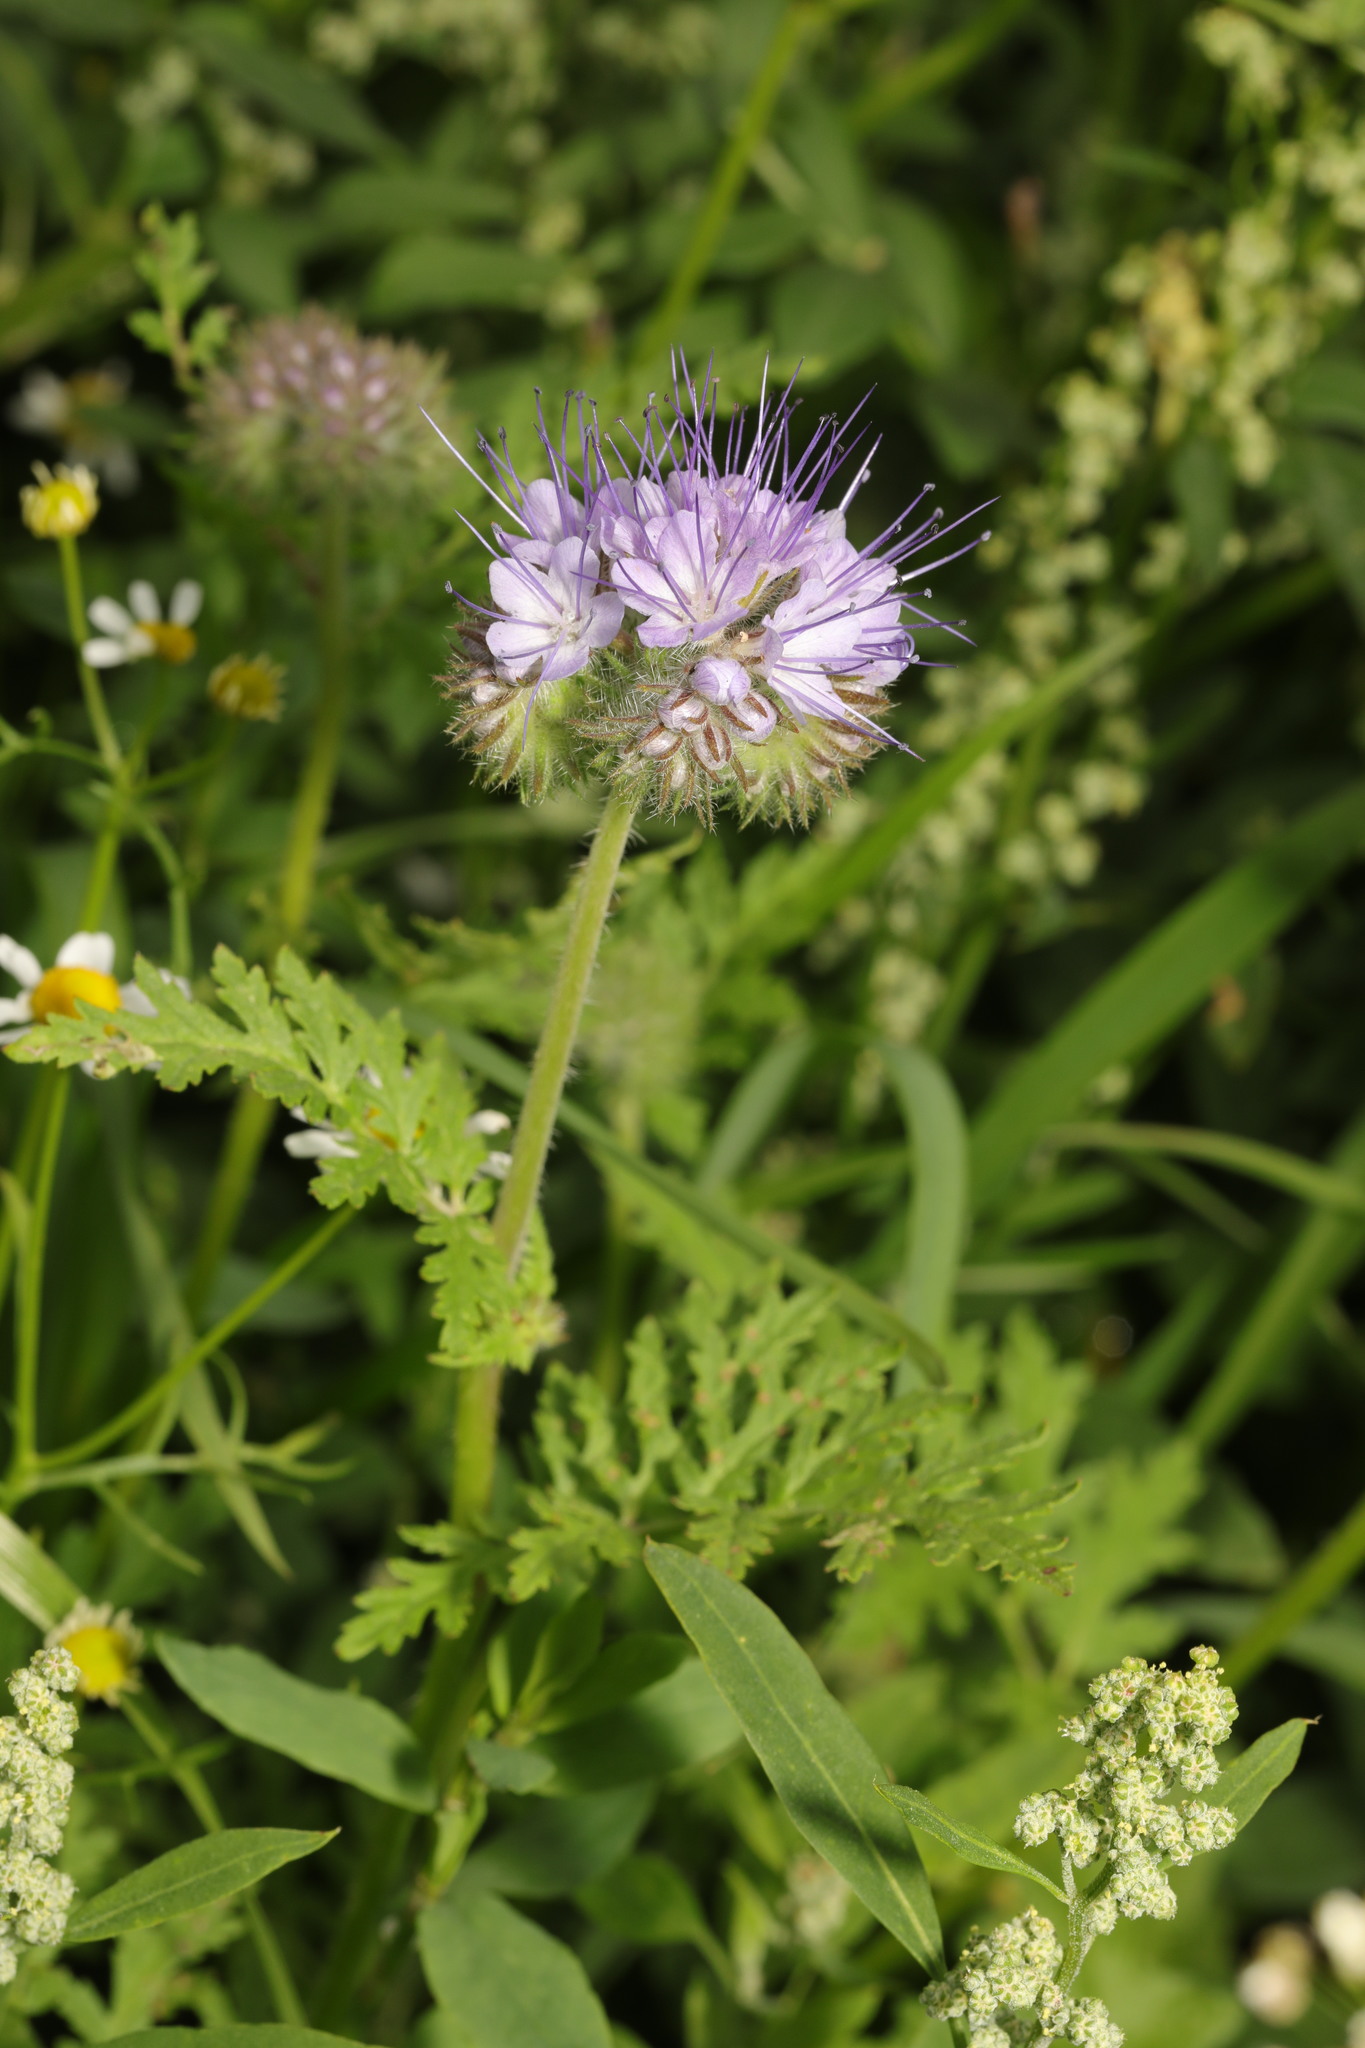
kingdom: Plantae
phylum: Tracheophyta
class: Magnoliopsida
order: Boraginales
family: Hydrophyllaceae
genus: Phacelia
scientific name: Phacelia tanacetifolia
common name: Phacelia
